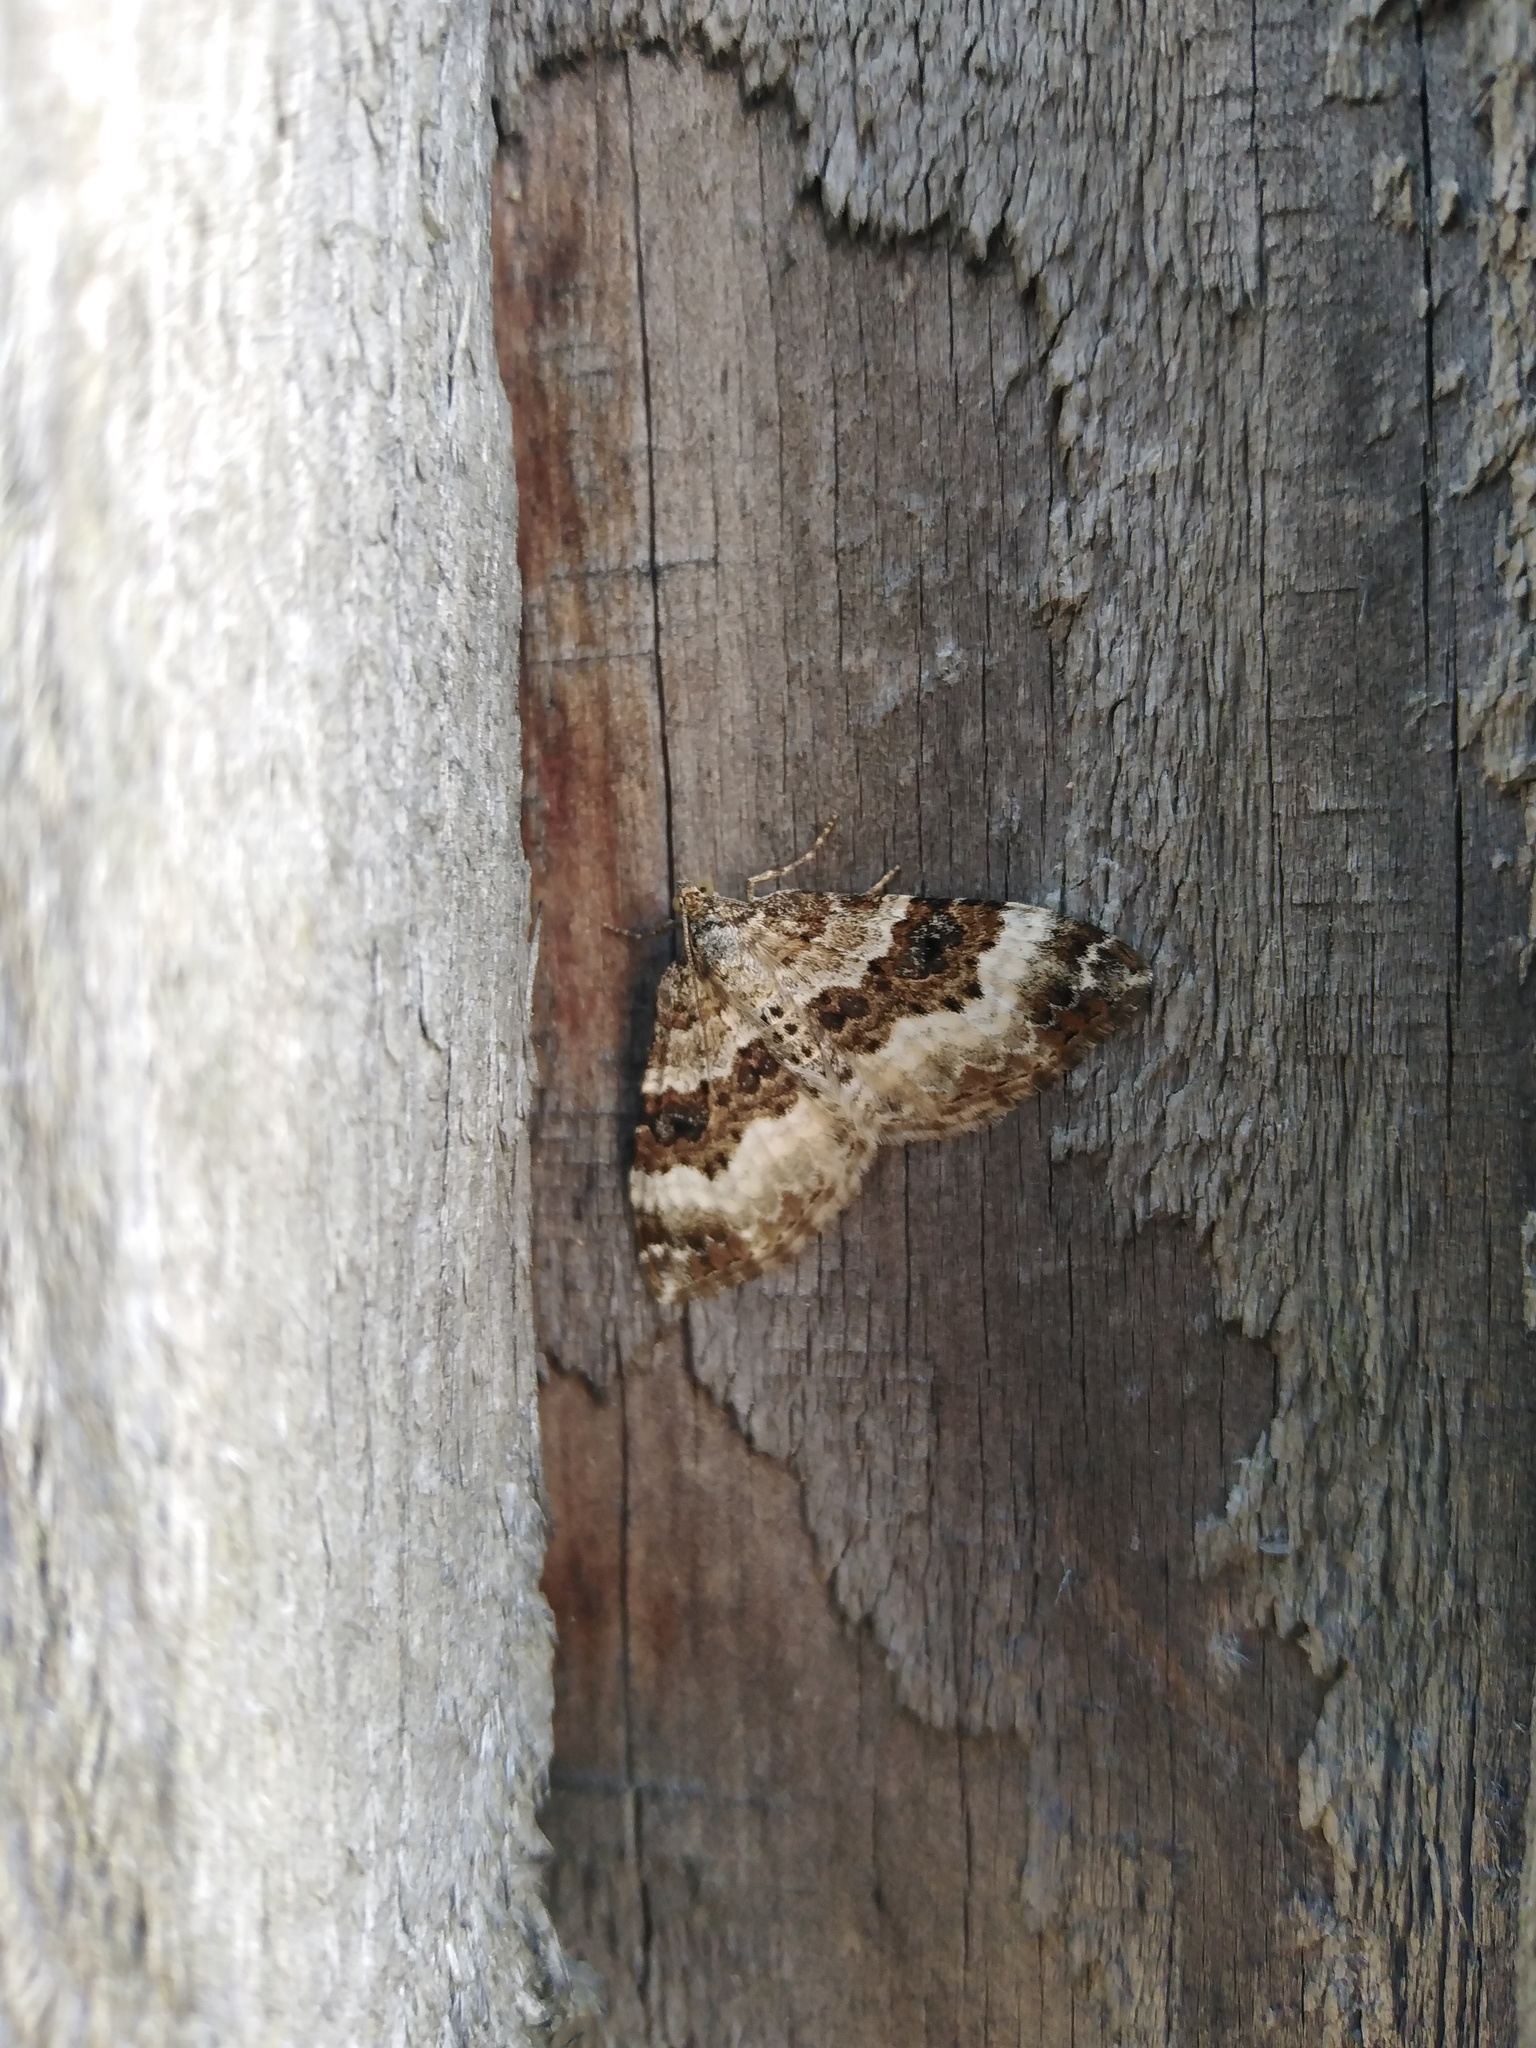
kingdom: Animalia
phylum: Arthropoda
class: Insecta
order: Lepidoptera
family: Geometridae
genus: Epirrhoe
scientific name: Epirrhoe alternata
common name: Common carpet
